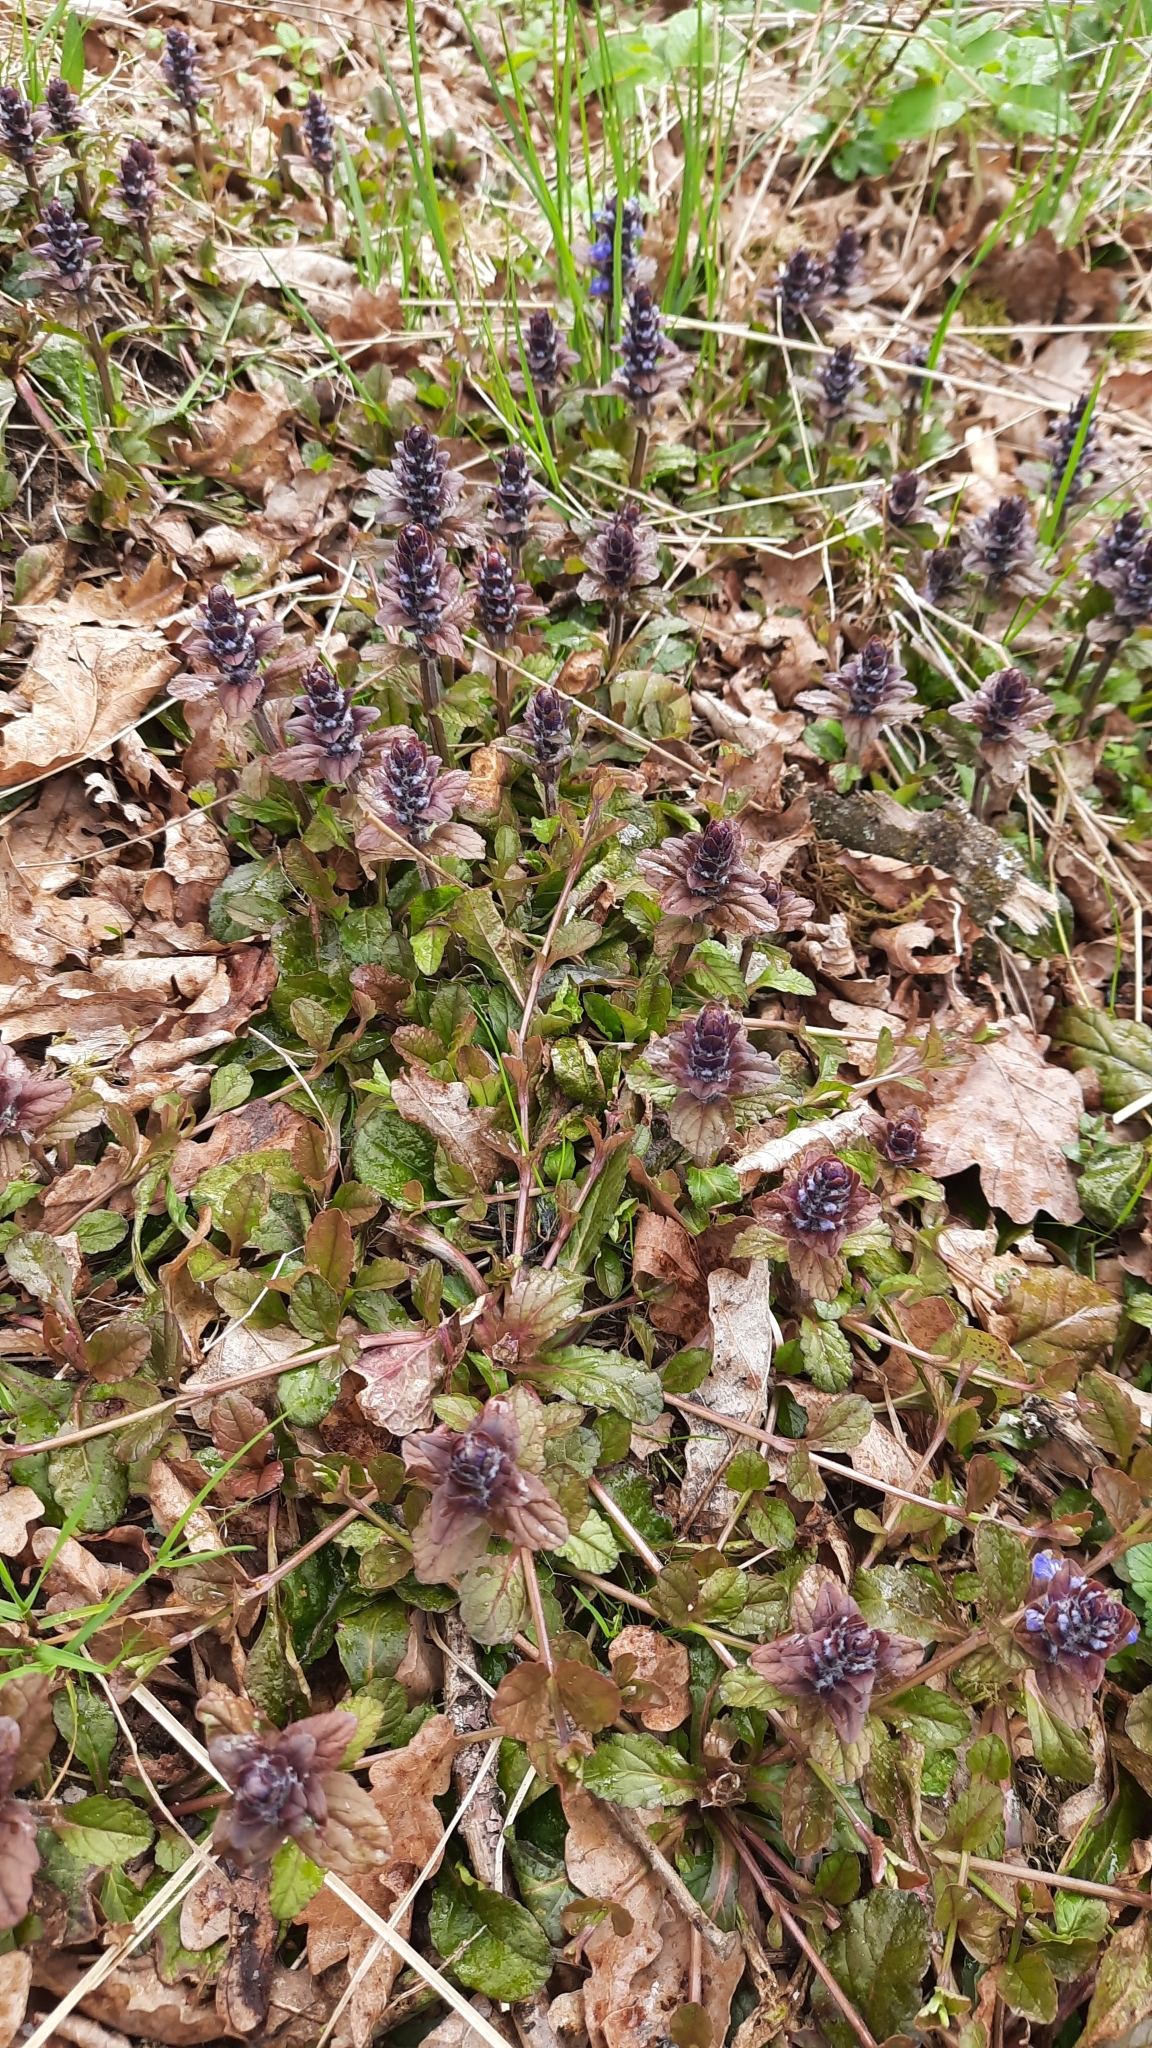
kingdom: Plantae
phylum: Tracheophyta
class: Magnoliopsida
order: Lamiales
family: Lamiaceae
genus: Ajuga
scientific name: Ajuga reptans
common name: Bugle
